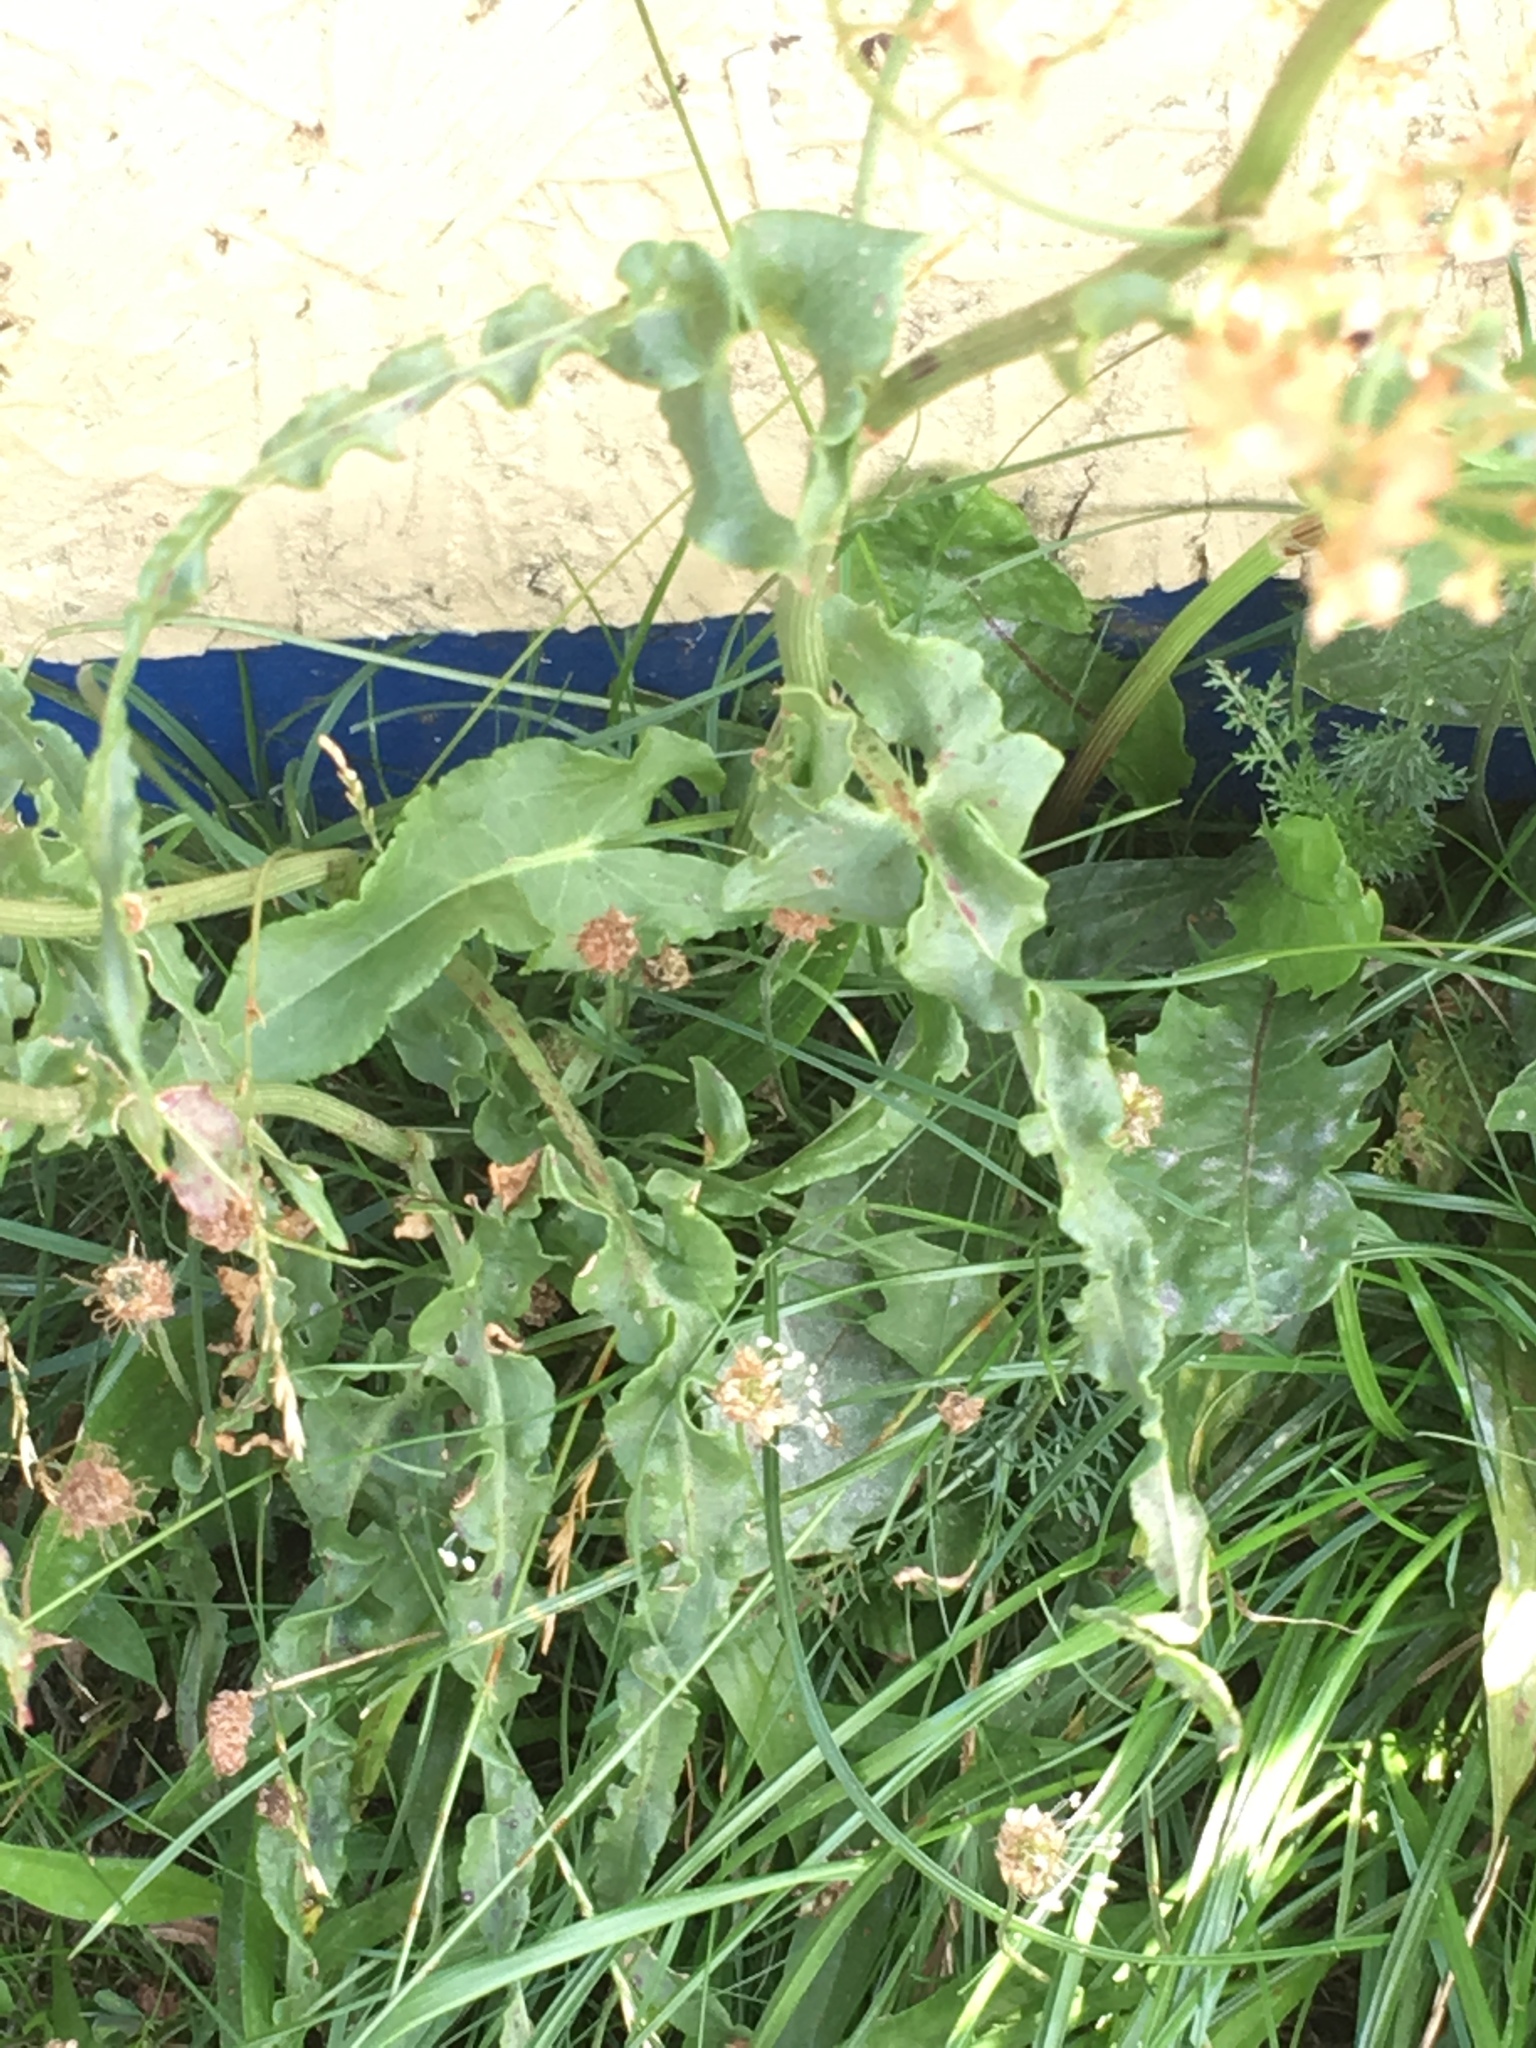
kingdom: Plantae
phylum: Tracheophyta
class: Magnoliopsida
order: Caryophyllales
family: Polygonaceae
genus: Rumex
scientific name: Rumex thyrsiflorus
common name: Garden sorrel
